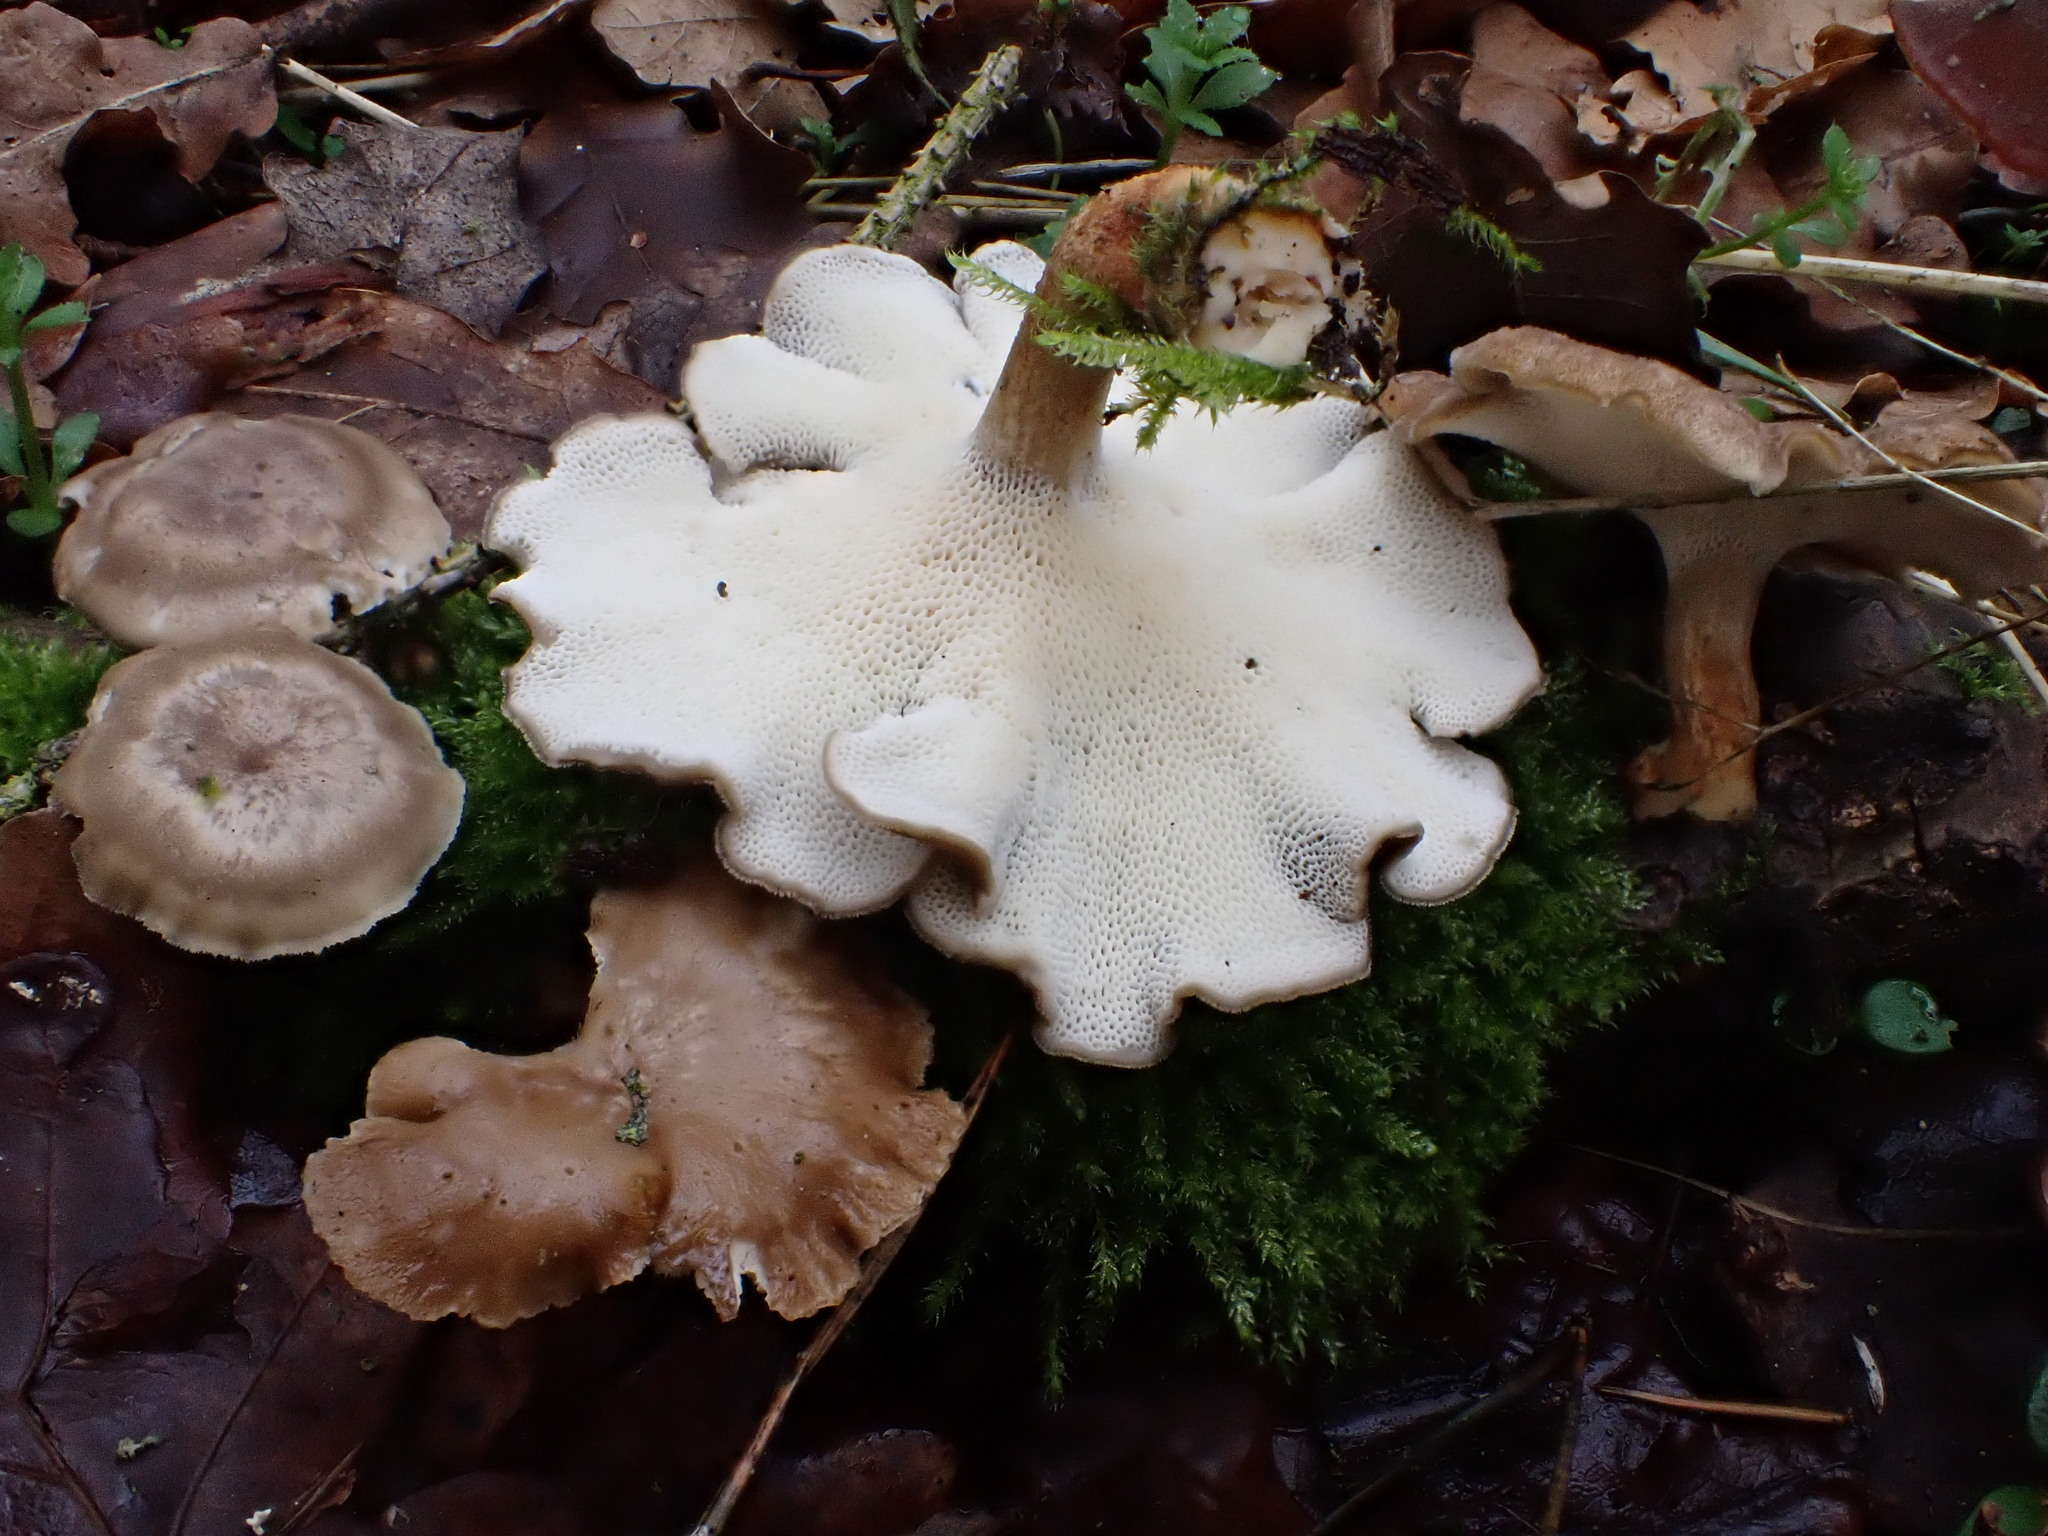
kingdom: Fungi
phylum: Basidiomycota
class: Agaricomycetes
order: Polyporales
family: Polyporaceae
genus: Lentinus
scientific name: Lentinus brumalis
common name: Winter polypore
